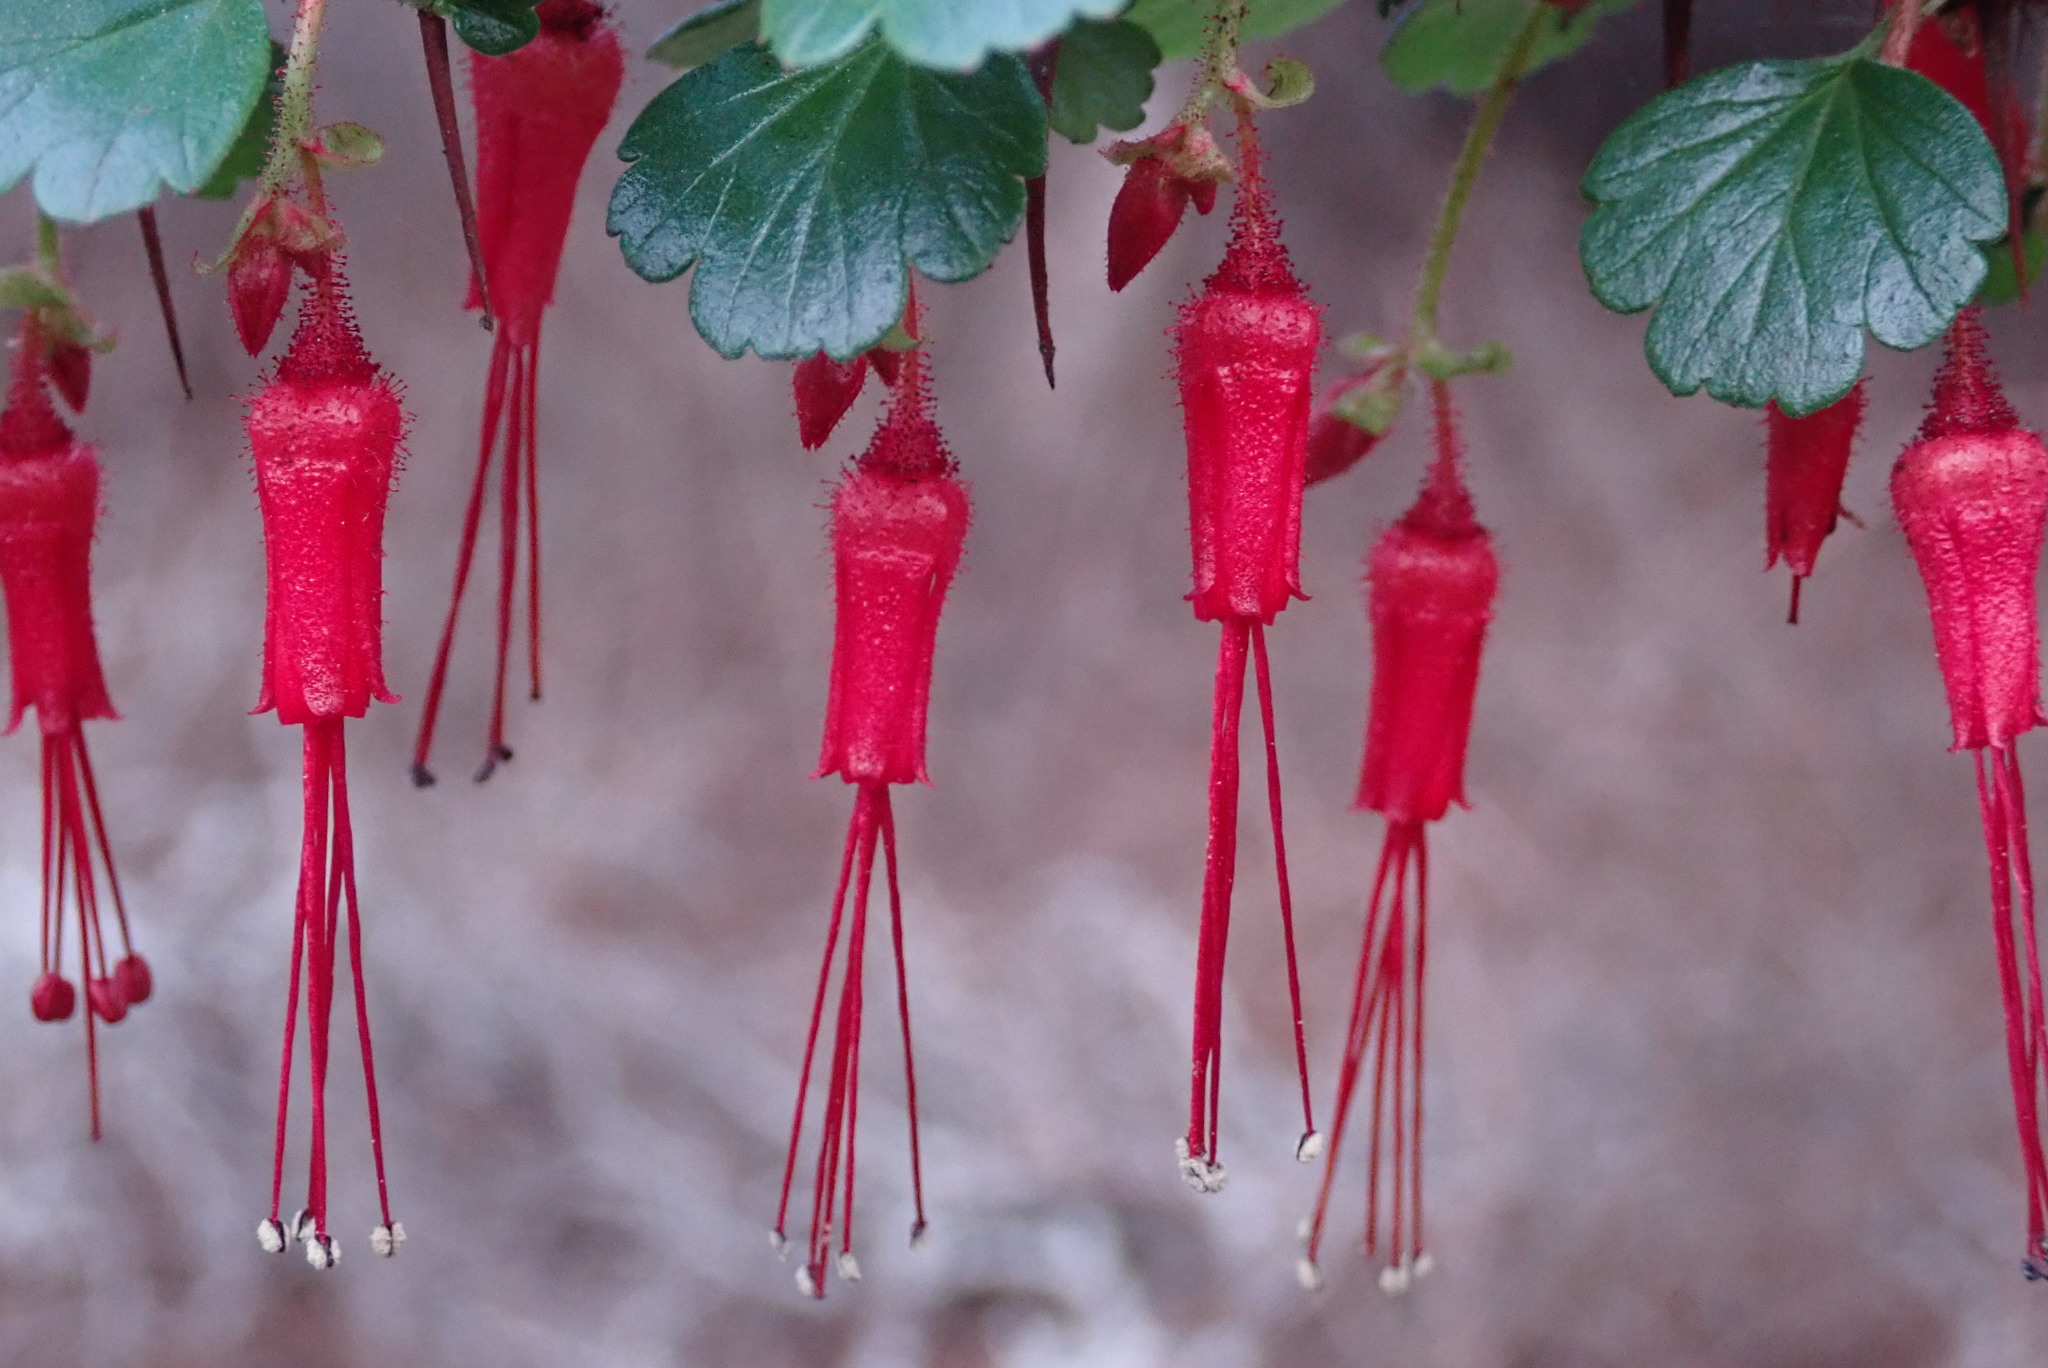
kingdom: Plantae
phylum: Tracheophyta
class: Magnoliopsida
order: Saxifragales
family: Grossulariaceae
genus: Ribes
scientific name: Ribes speciosum
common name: Fuchsia-flower gooseberry
